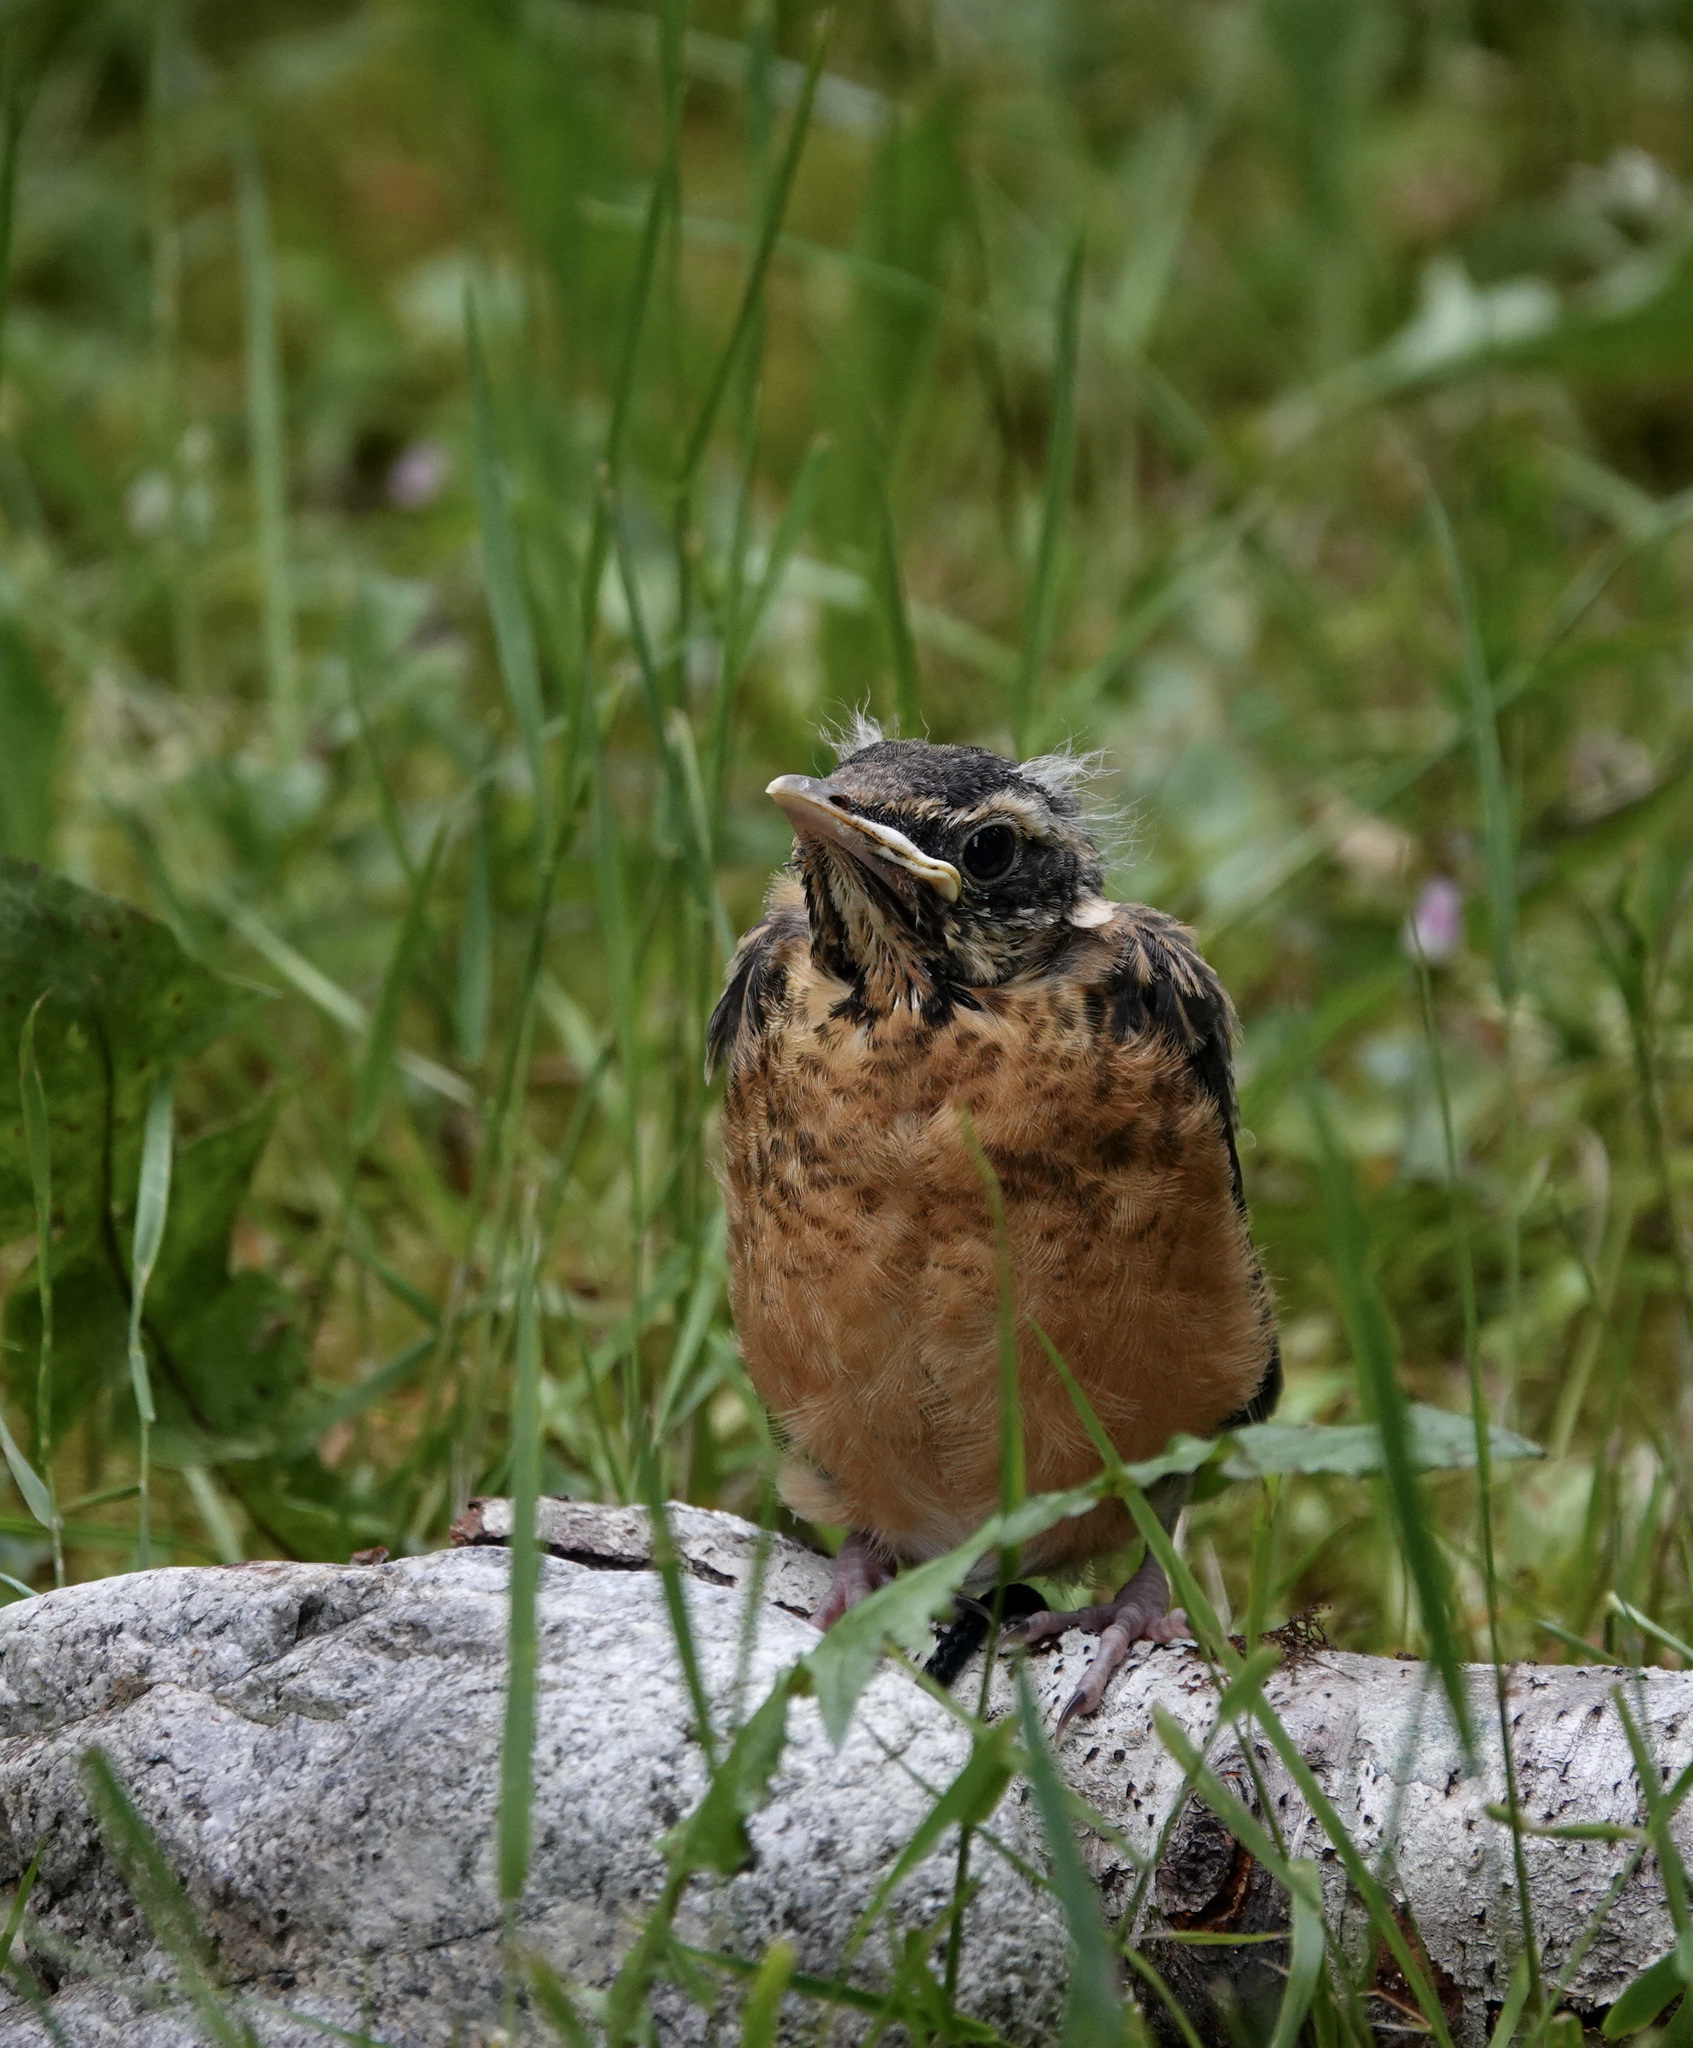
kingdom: Animalia
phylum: Chordata
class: Aves
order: Passeriformes
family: Turdidae
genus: Turdus
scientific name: Turdus migratorius
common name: American robin
